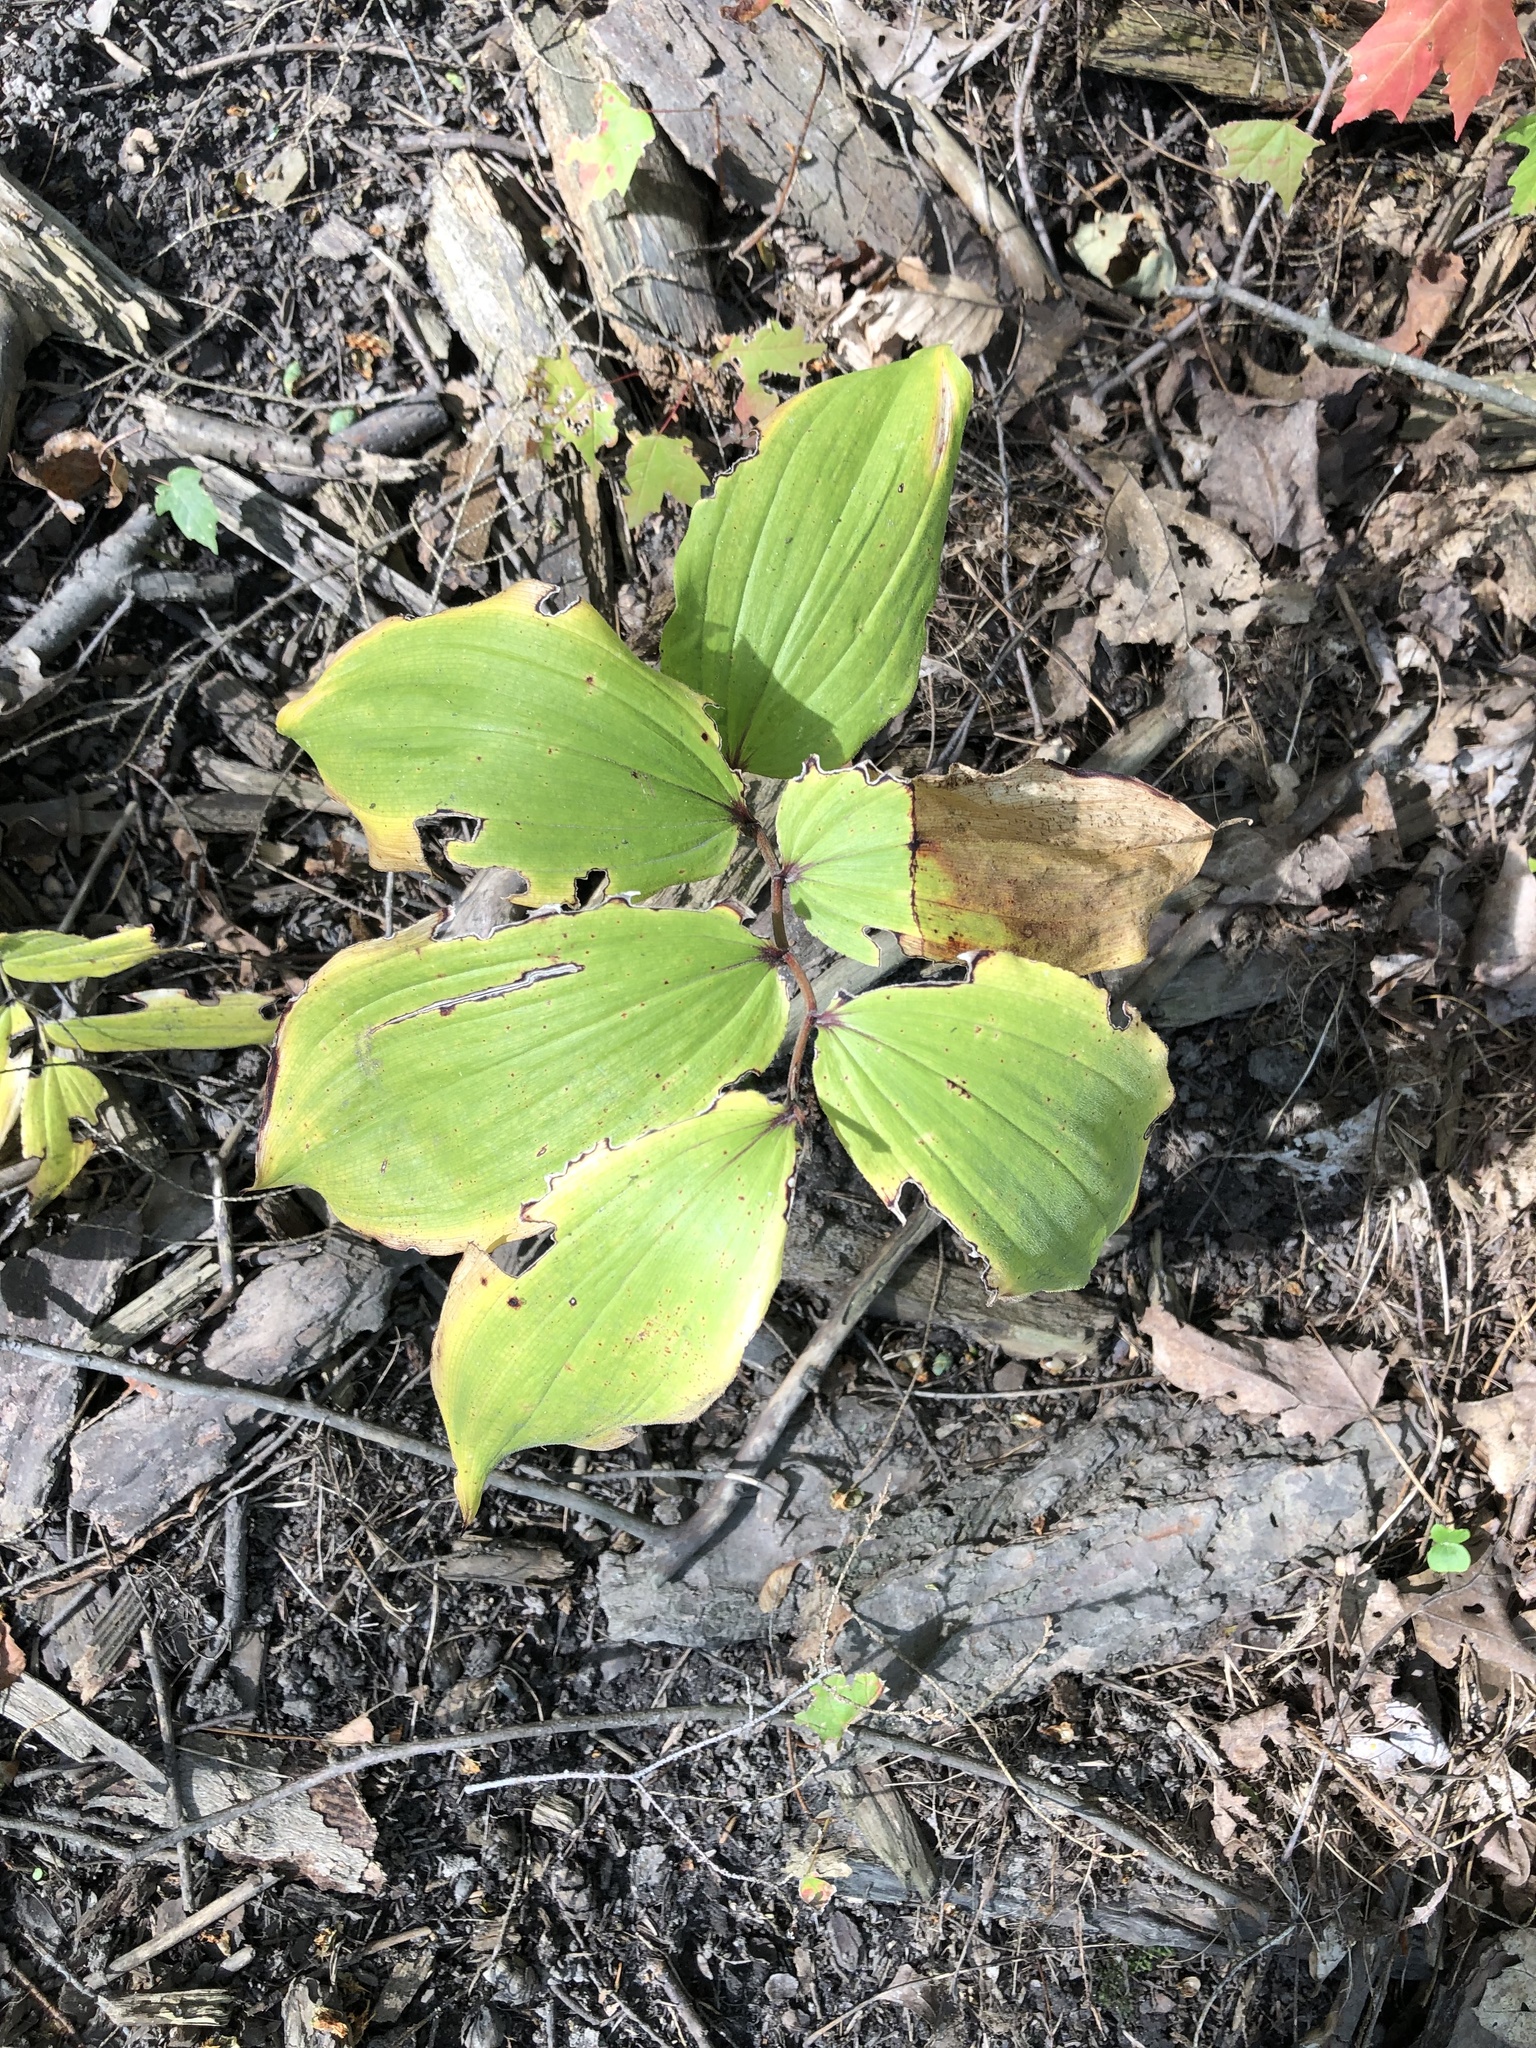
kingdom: Plantae
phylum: Tracheophyta
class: Liliopsida
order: Asparagales
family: Asparagaceae
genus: Maianthemum
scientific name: Maianthemum racemosum
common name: False spikenard
